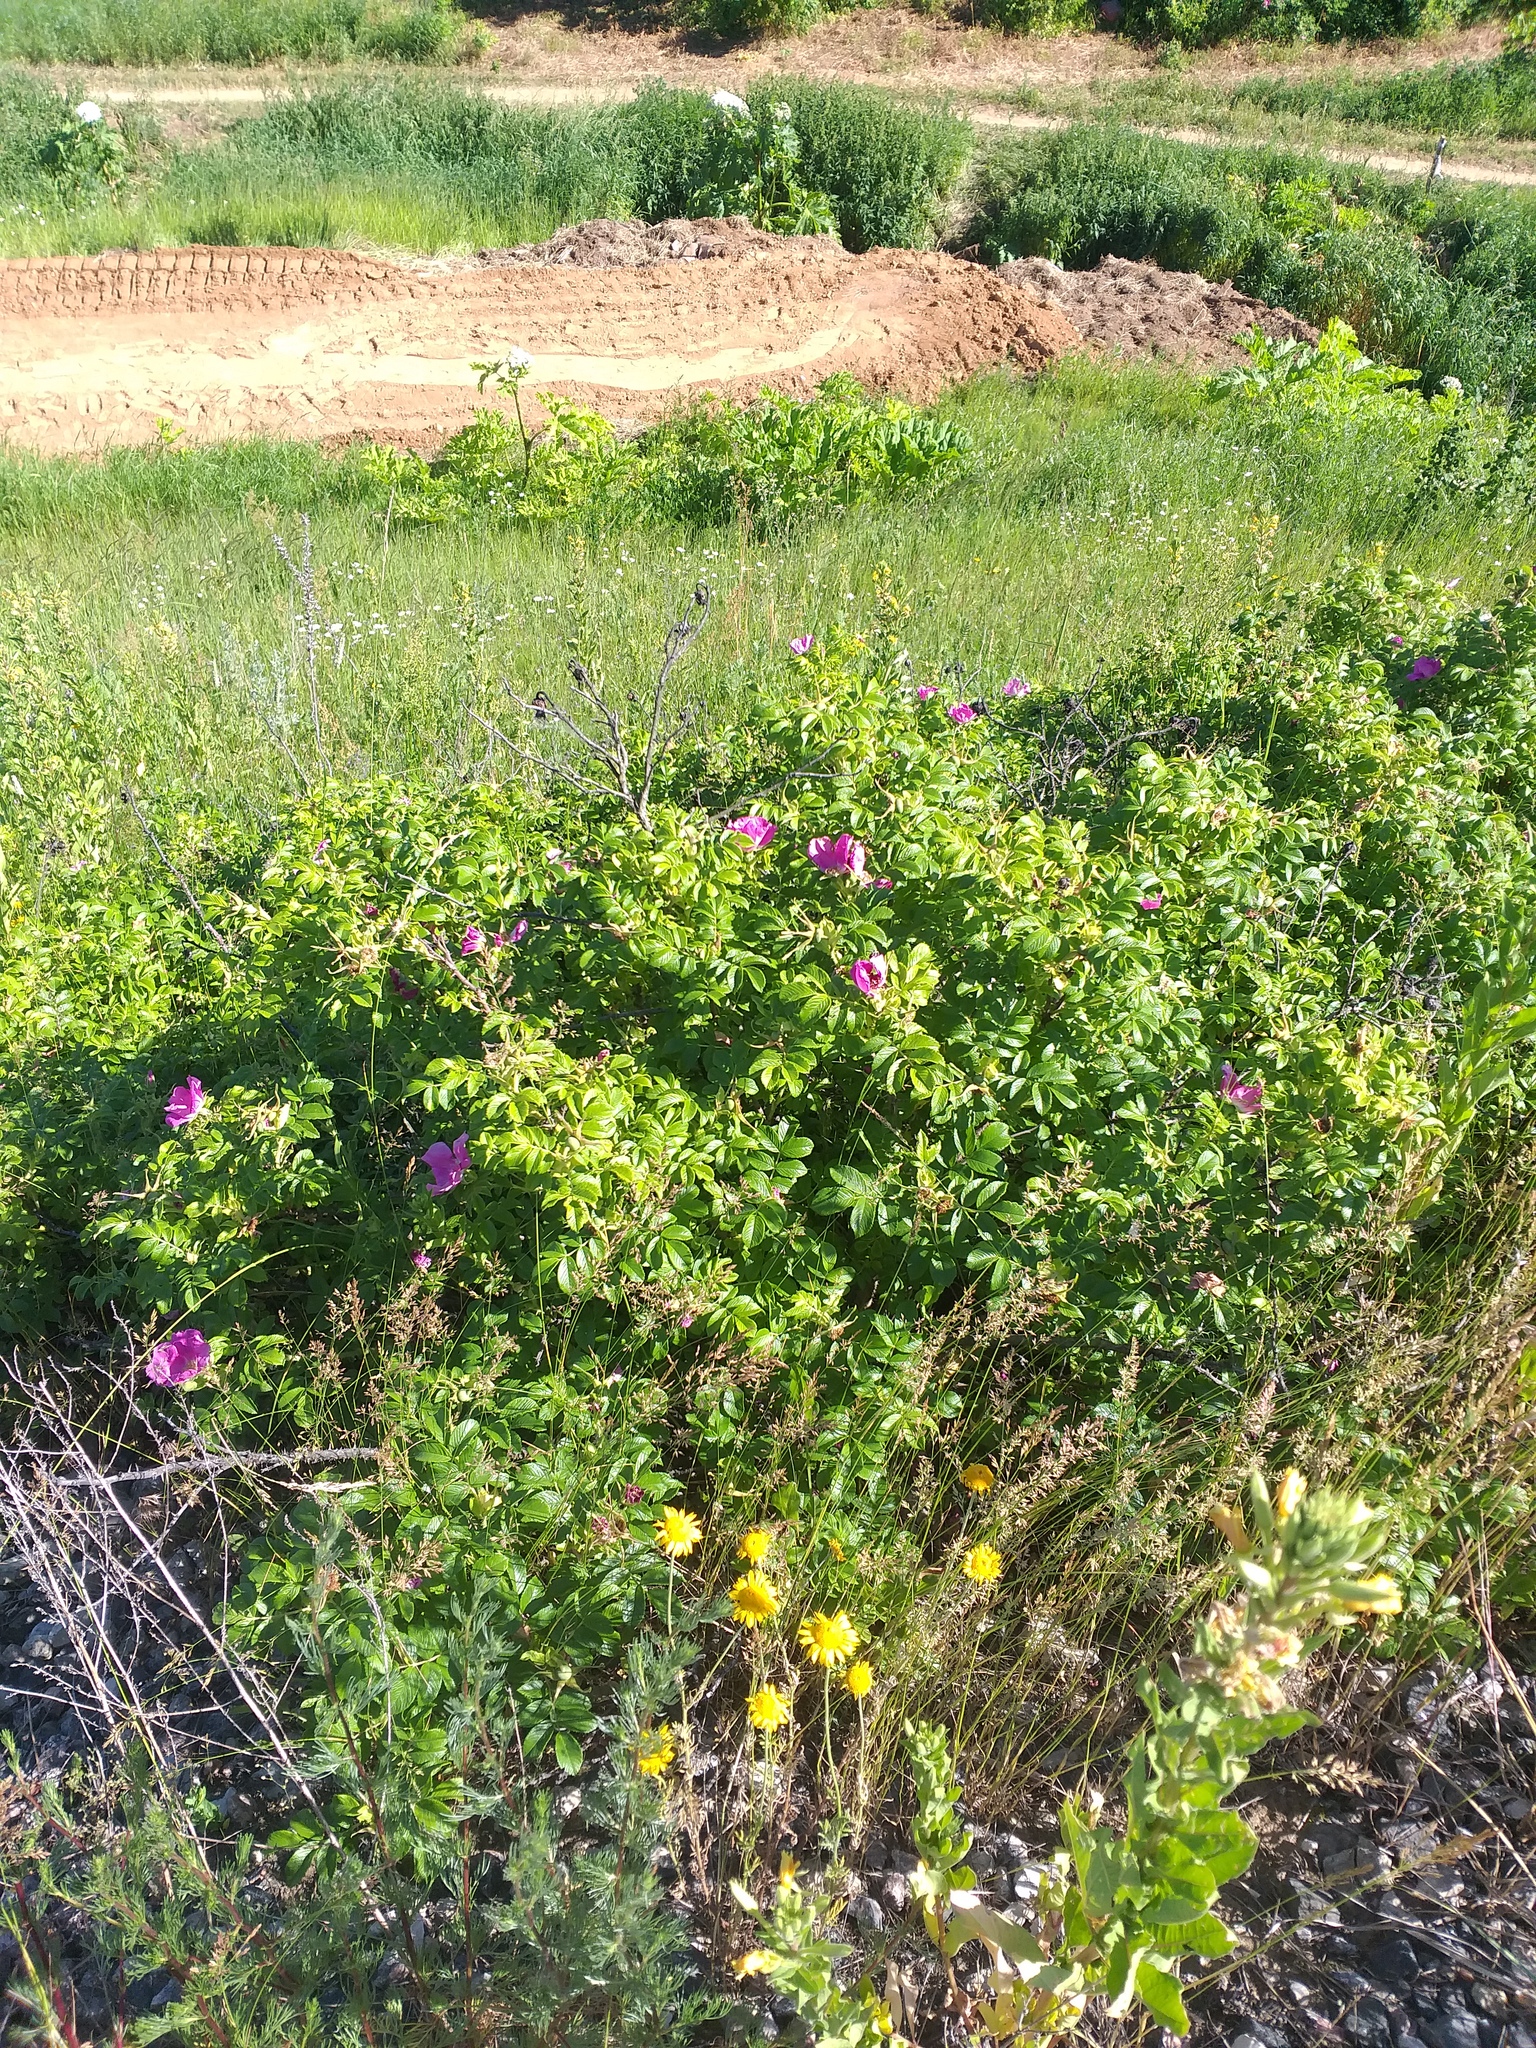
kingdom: Plantae
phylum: Tracheophyta
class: Magnoliopsida
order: Rosales
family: Rosaceae
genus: Rosa
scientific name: Rosa rugosa
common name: Japanese rose
